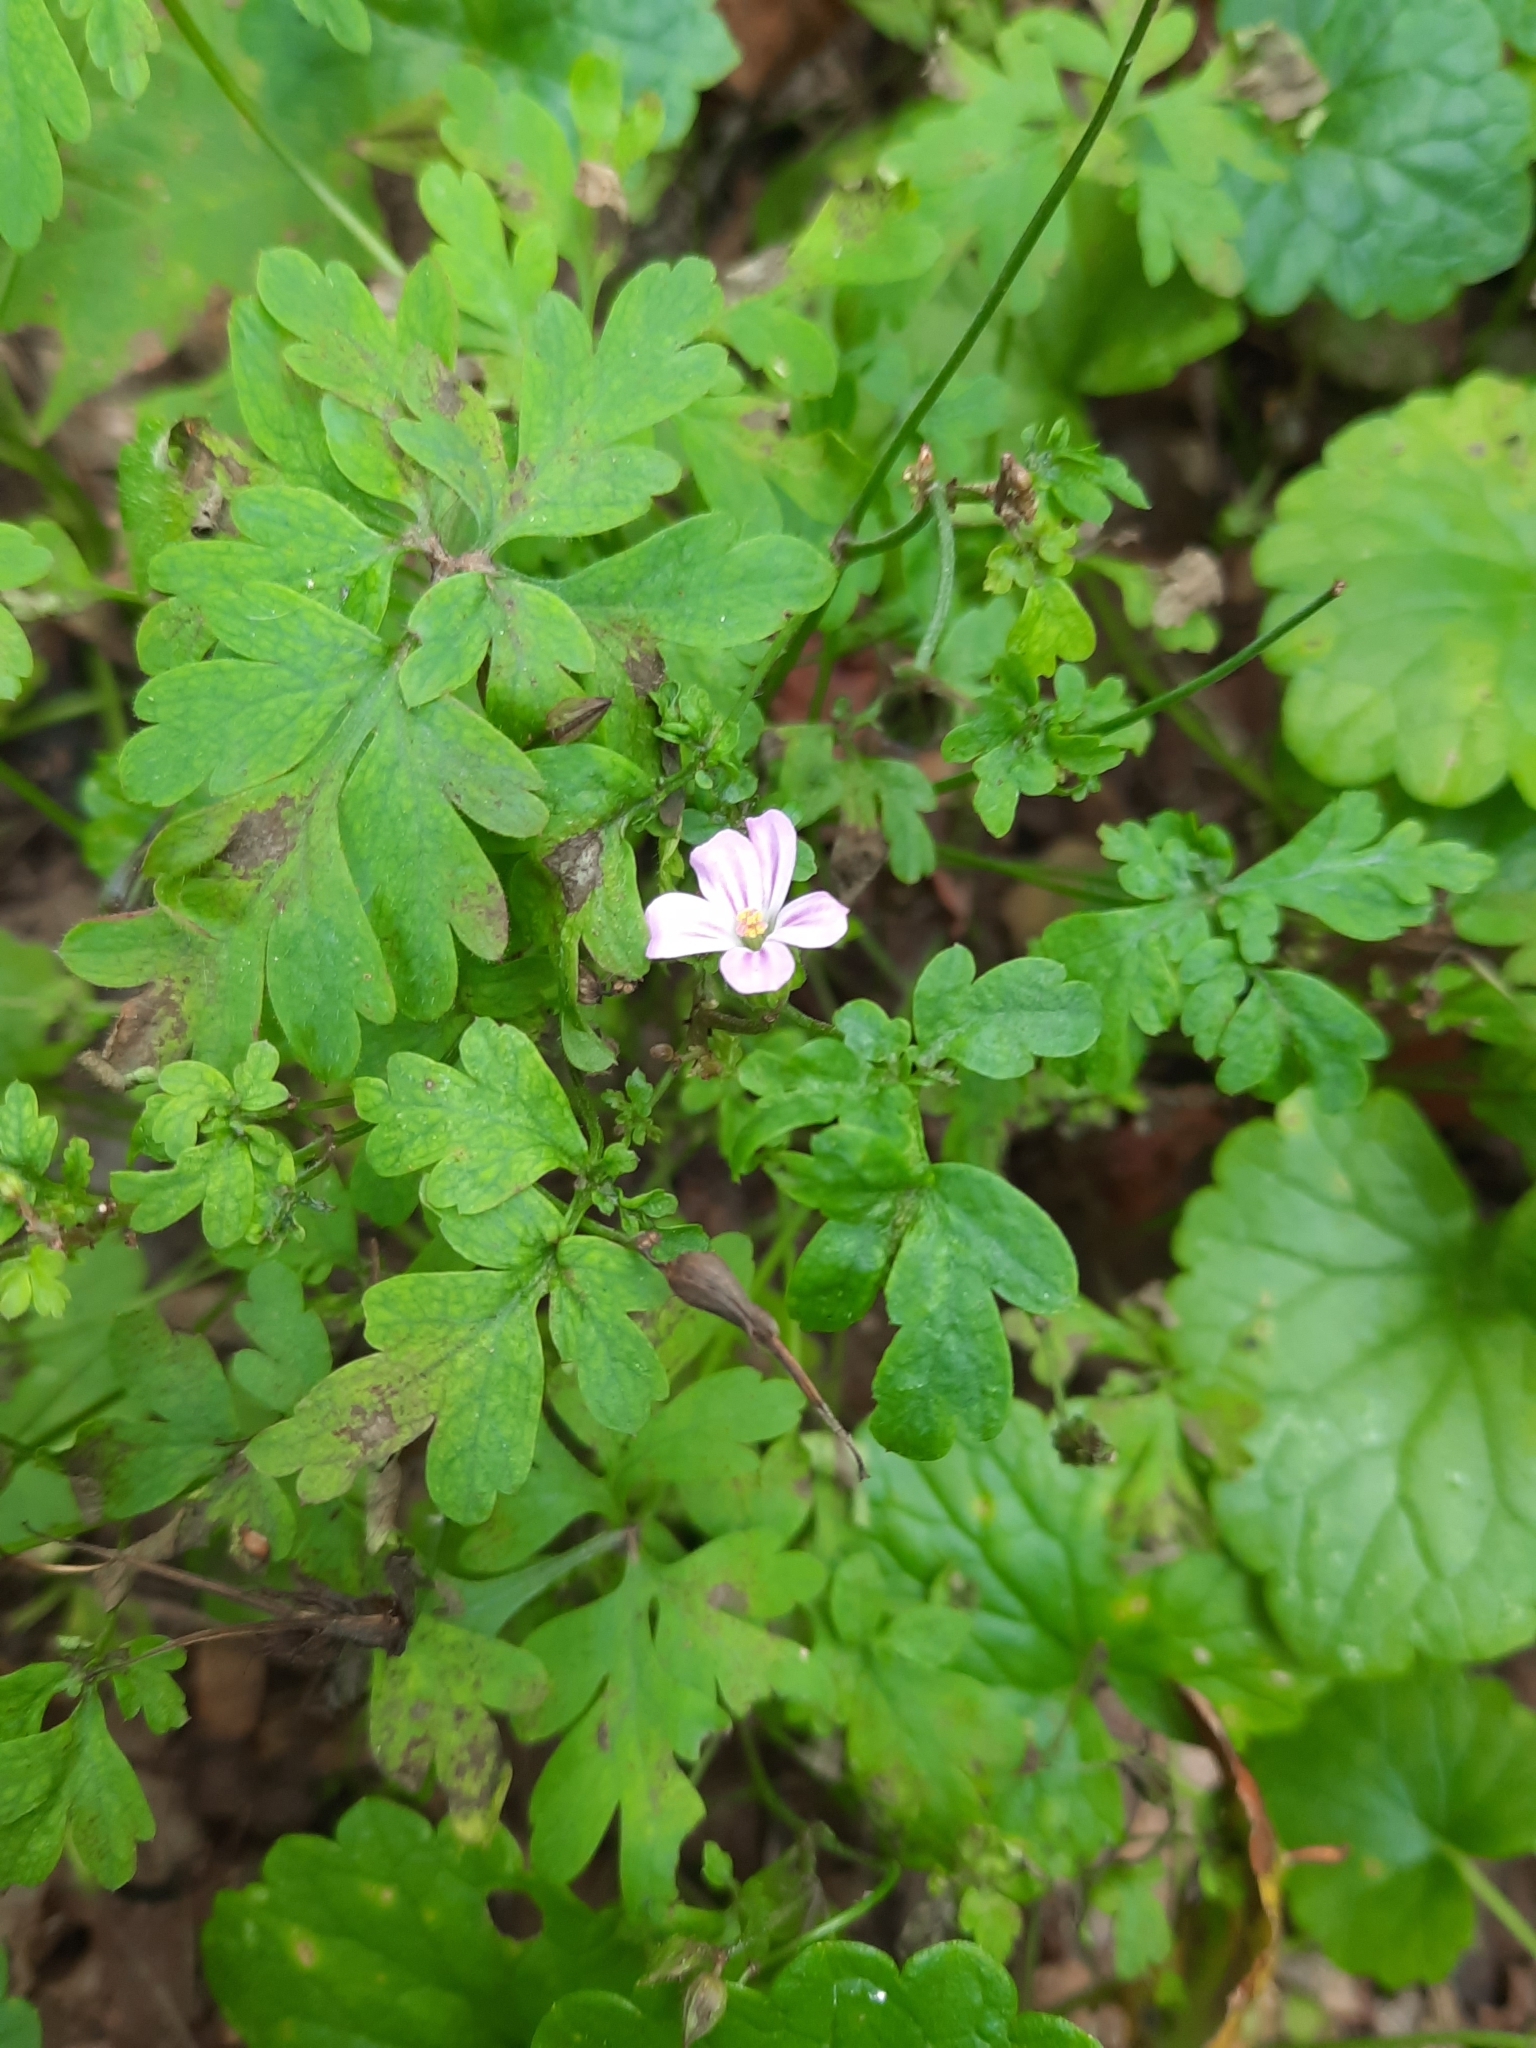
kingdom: Plantae
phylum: Tracheophyta
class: Magnoliopsida
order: Geraniales
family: Geraniaceae
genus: Geranium
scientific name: Geranium robertianum
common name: Herb-robert
